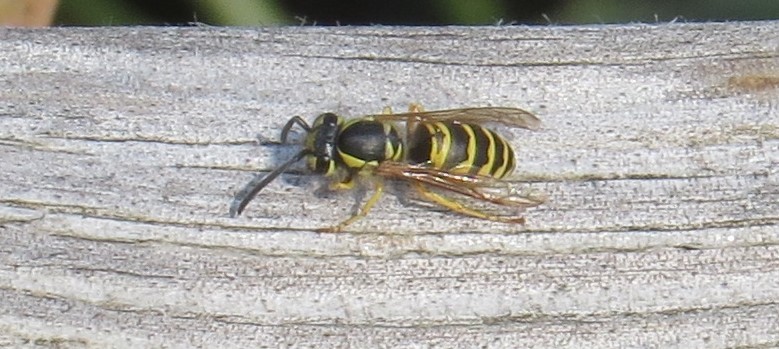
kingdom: Animalia
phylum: Arthropoda
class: Insecta
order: Hymenoptera
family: Vespidae
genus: Vespula
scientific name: Vespula maculifrons
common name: Eastern yellowjacket
